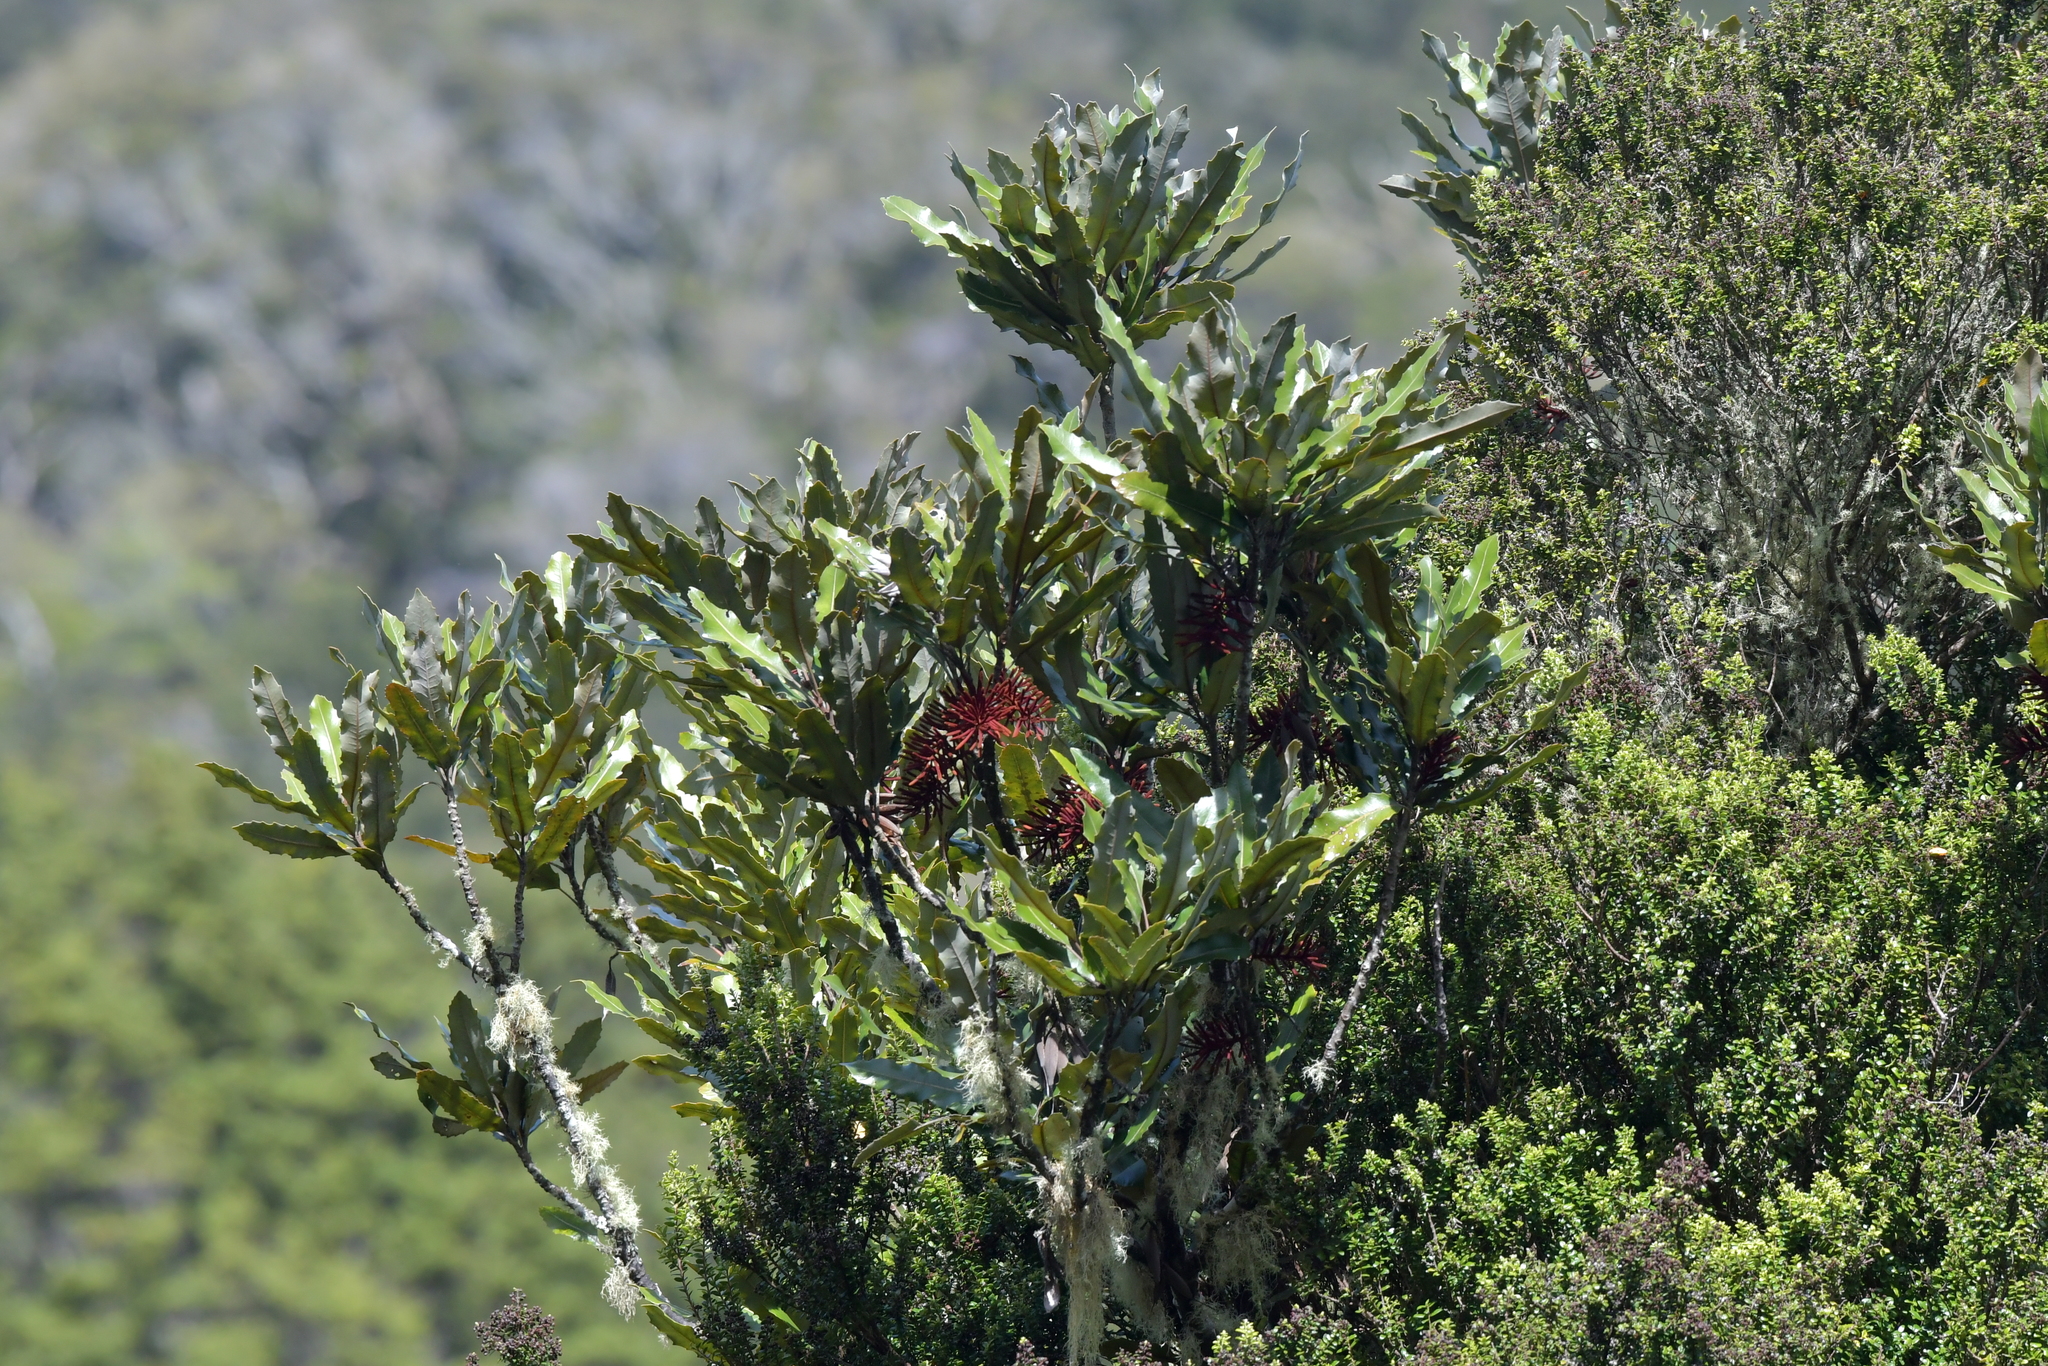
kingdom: Plantae
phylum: Tracheophyta
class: Magnoliopsida
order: Proteales
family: Proteaceae
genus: Knightia
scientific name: Knightia excelsa
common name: New zealand-honeysuckle
